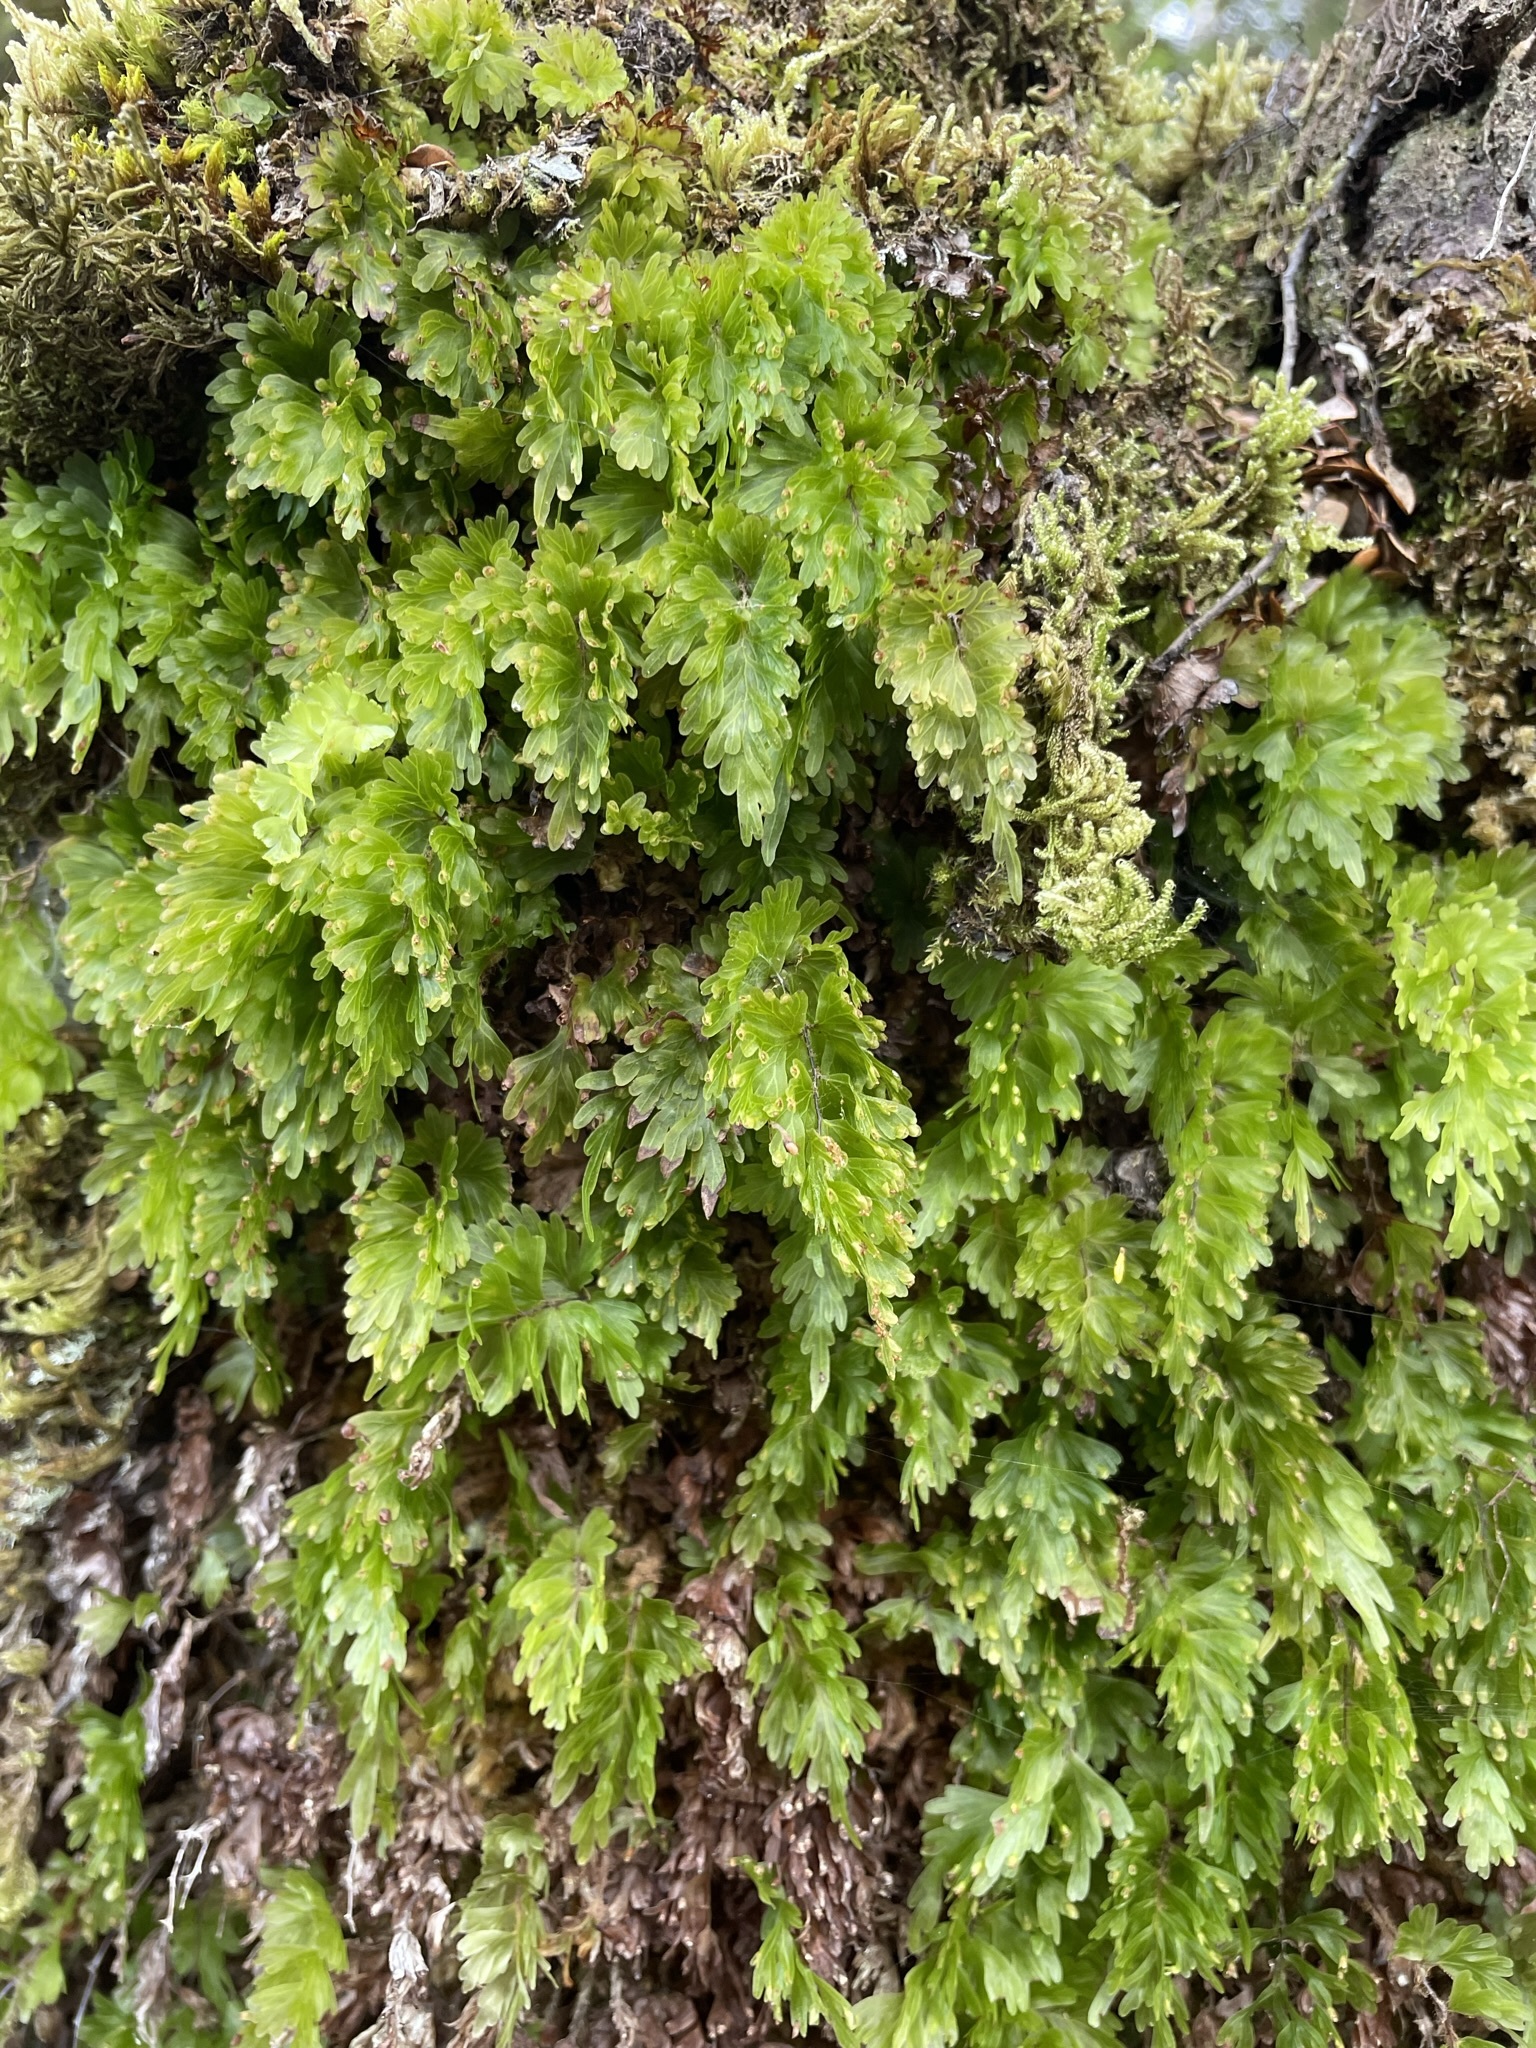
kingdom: Plantae
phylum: Tracheophyta
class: Polypodiopsida
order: Hymenophyllales
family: Hymenophyllaceae
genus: Hymenophyllum
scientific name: Hymenophyllum flabellatum
